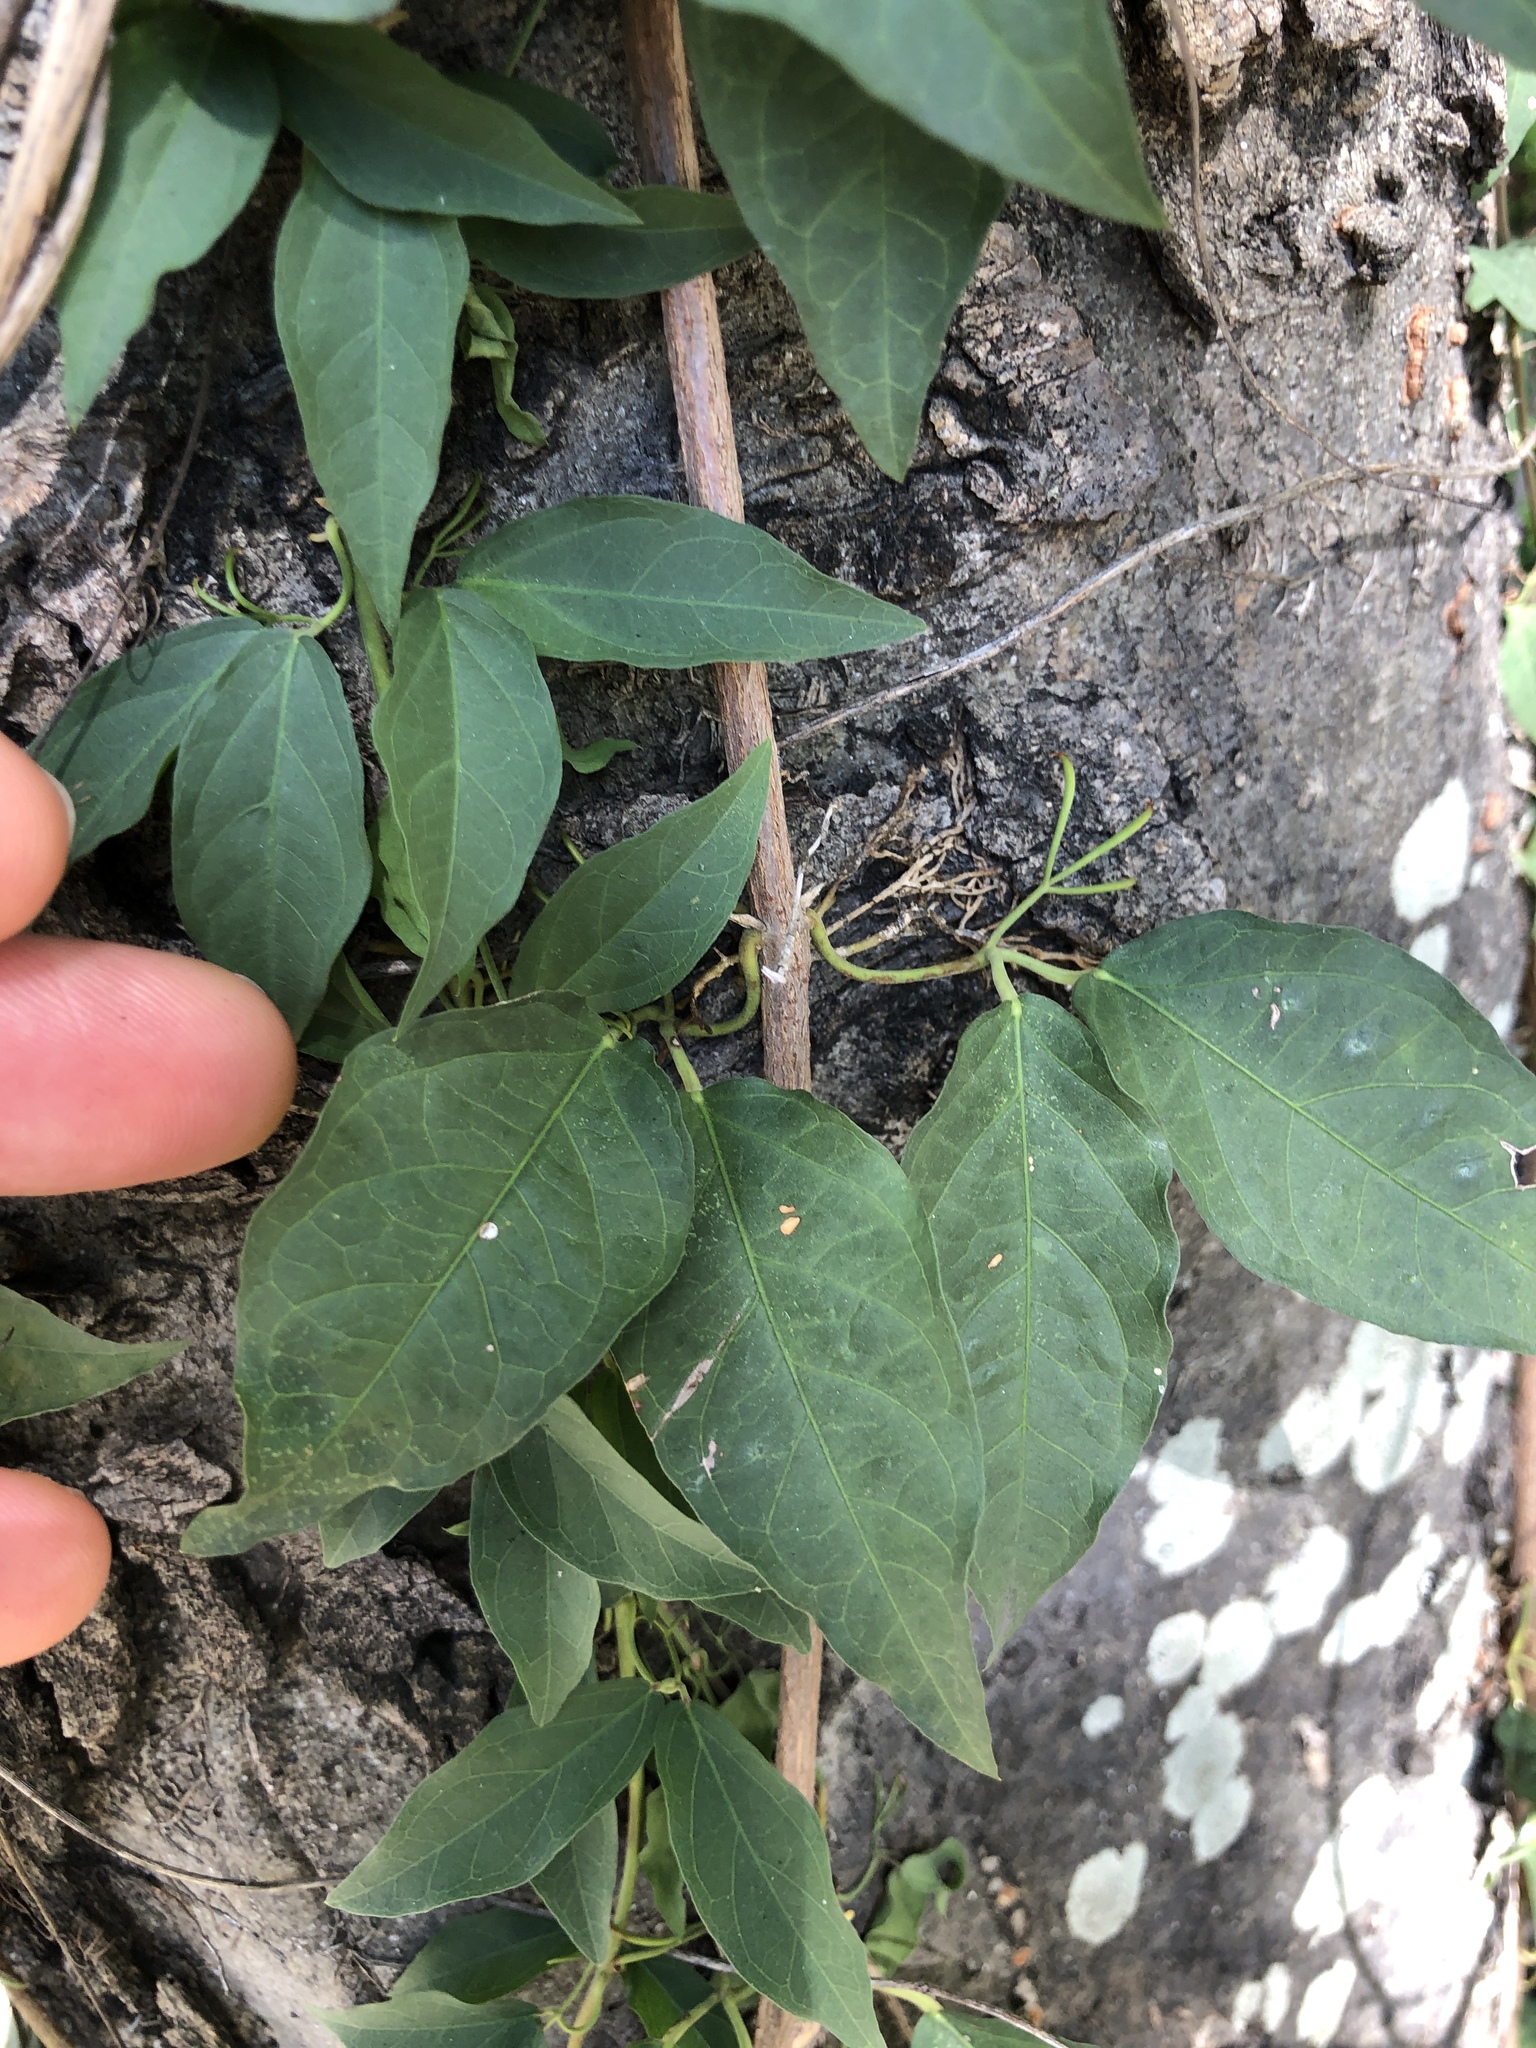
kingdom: Plantae
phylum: Tracheophyta
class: Magnoliopsida
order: Lamiales
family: Bignoniaceae
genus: Dolichandra
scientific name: Dolichandra unguis-cati
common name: Catclaw vine
